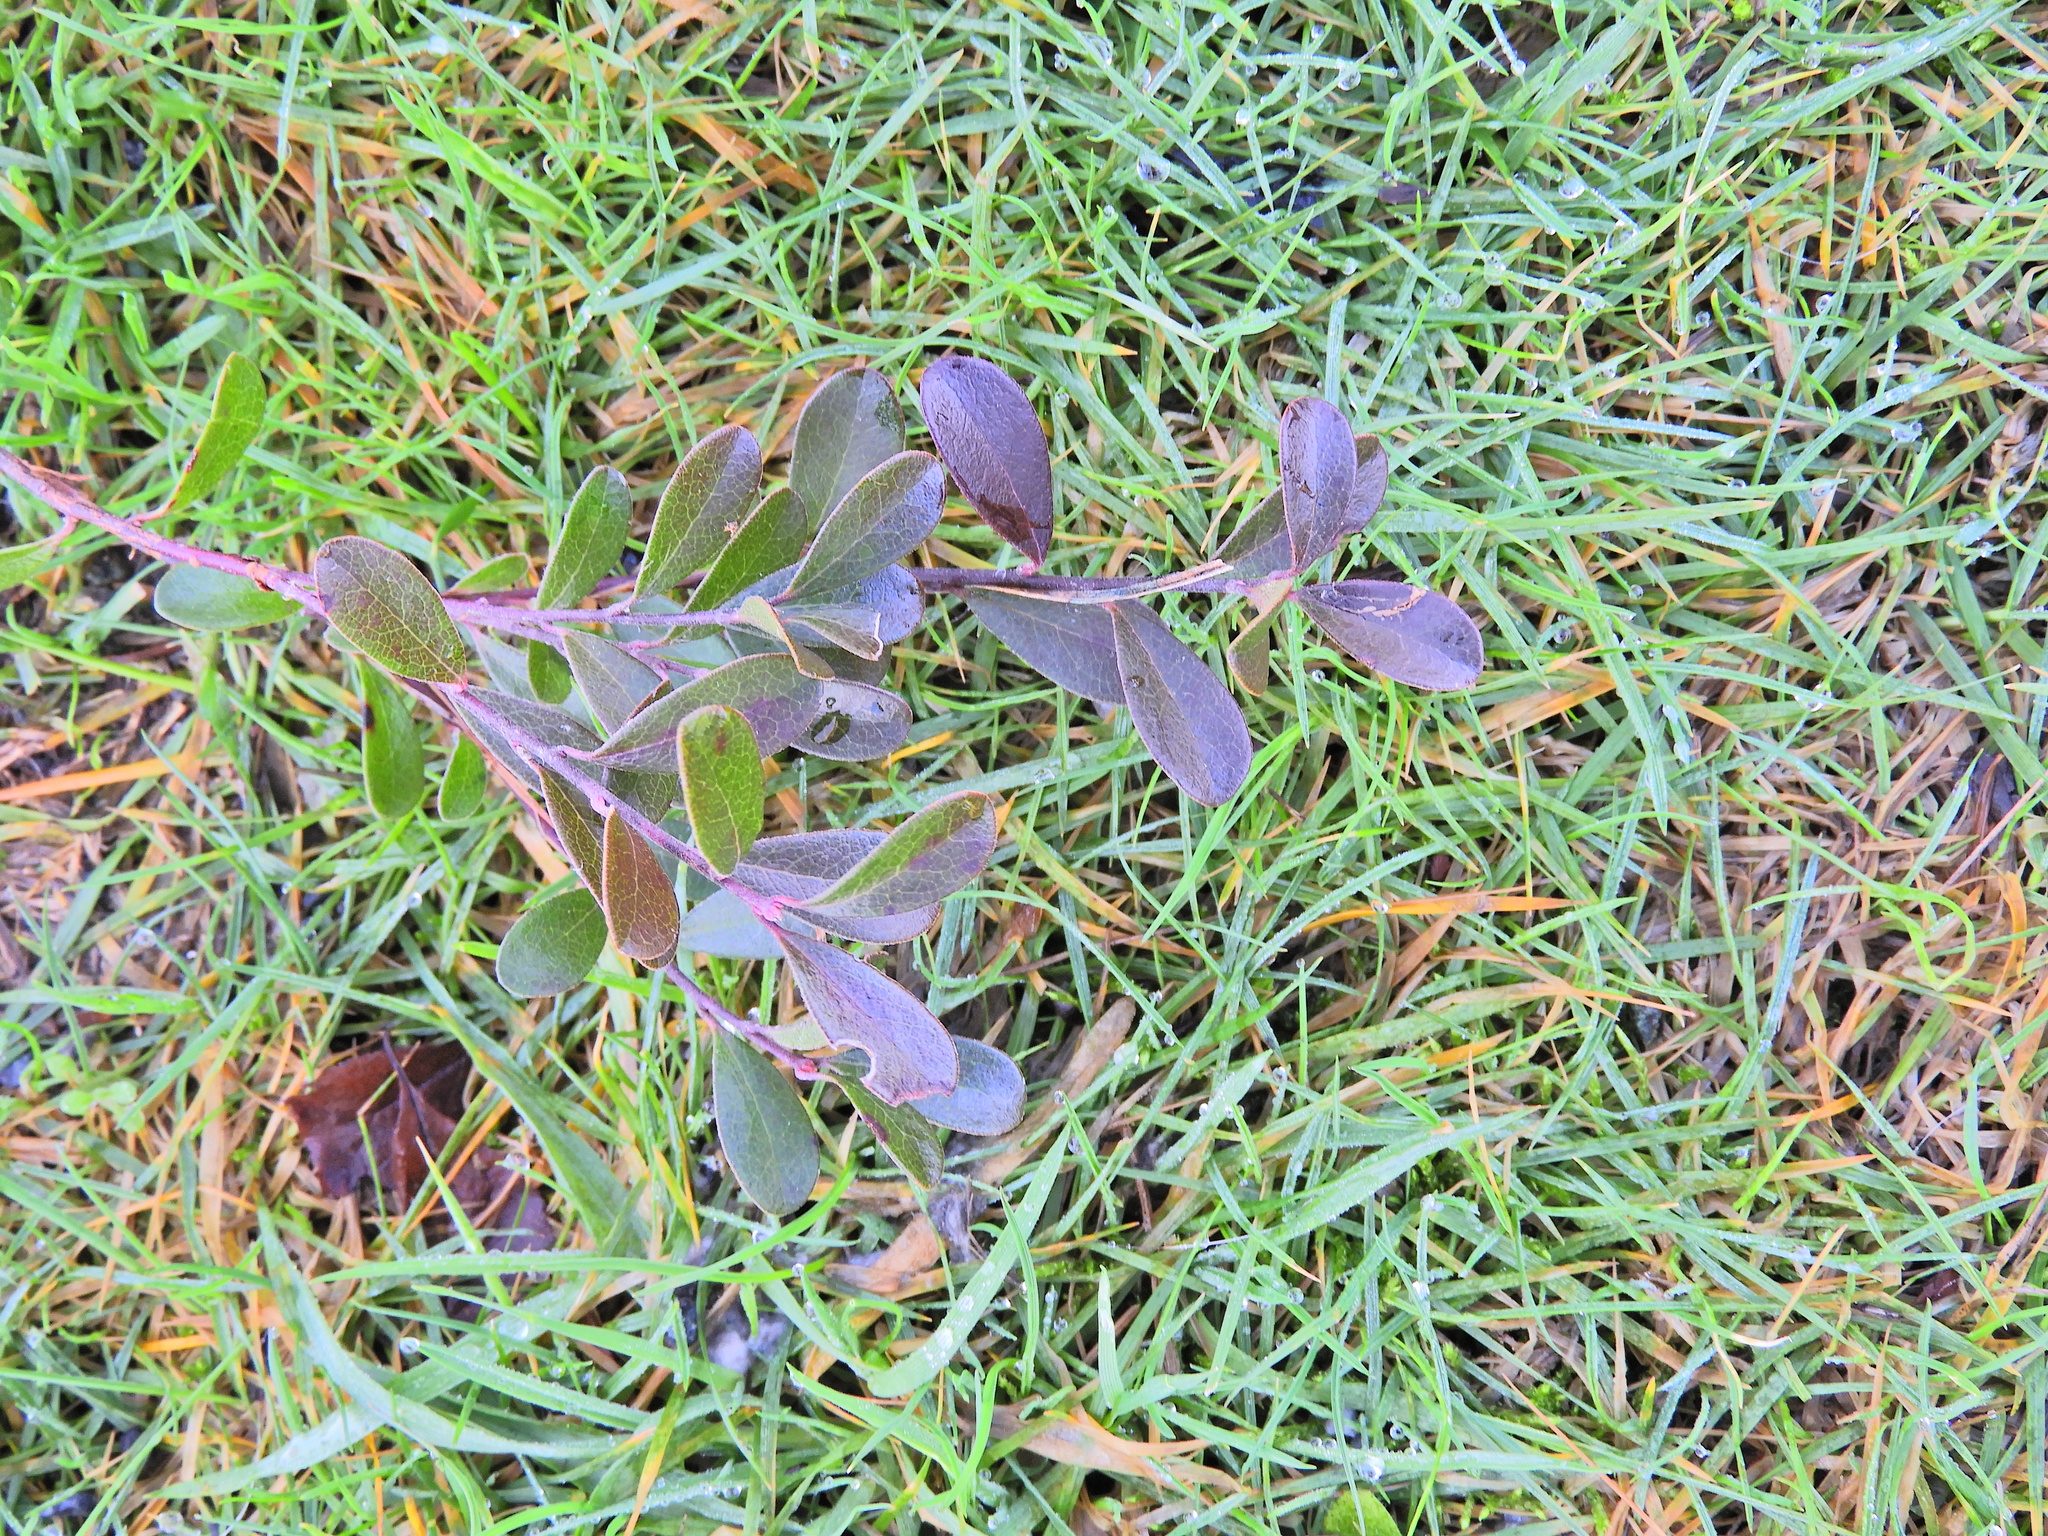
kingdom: Plantae
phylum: Tracheophyta
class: Magnoliopsida
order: Ericales
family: Ericaceae
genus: Arctostaphylos
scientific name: Arctostaphylos uva-ursi
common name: Bearberry
